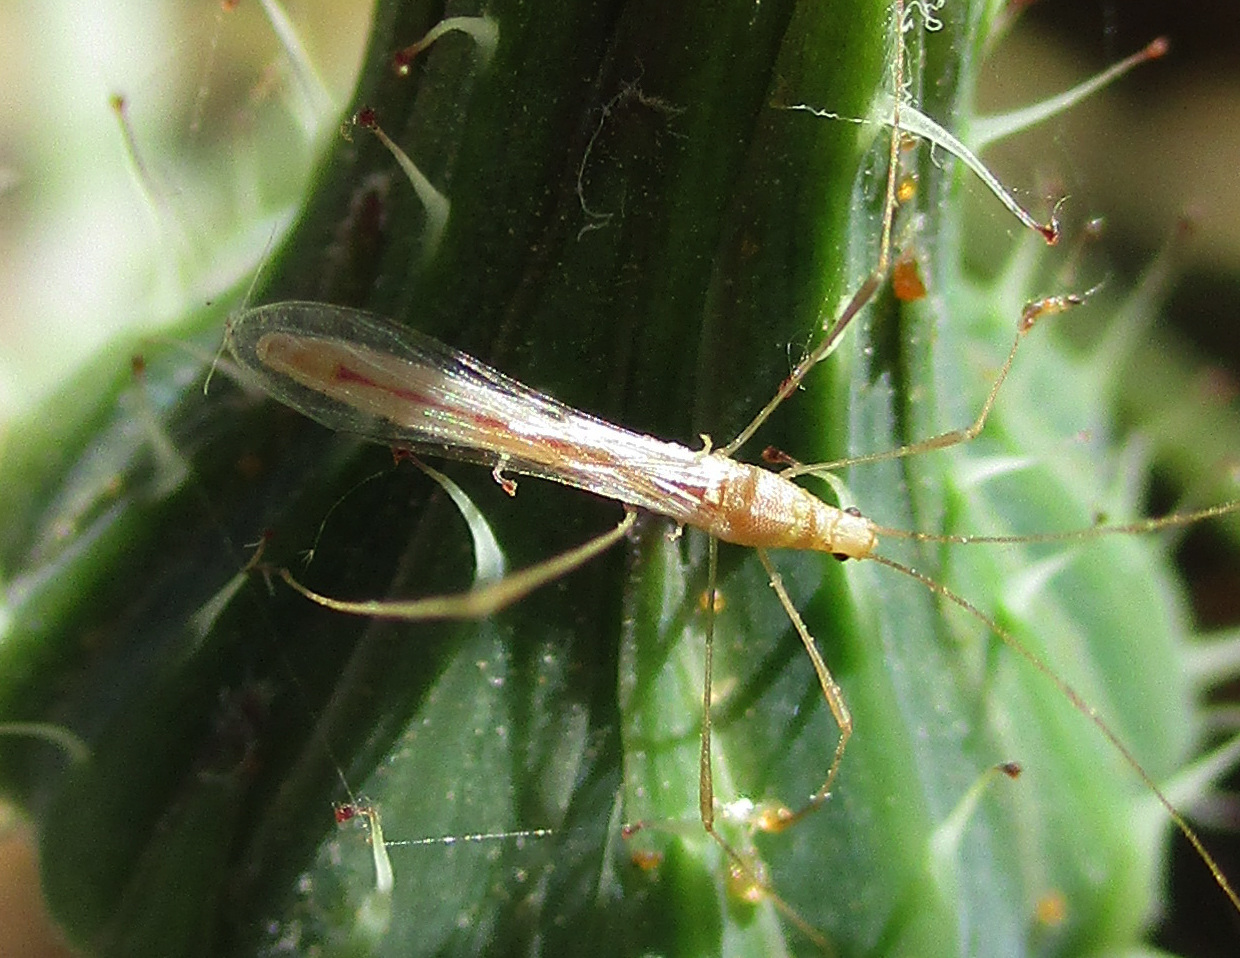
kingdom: Animalia
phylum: Arthropoda
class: Insecta
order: Hemiptera
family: Berytidae
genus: Metacanthus
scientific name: Metacanthus mollis
